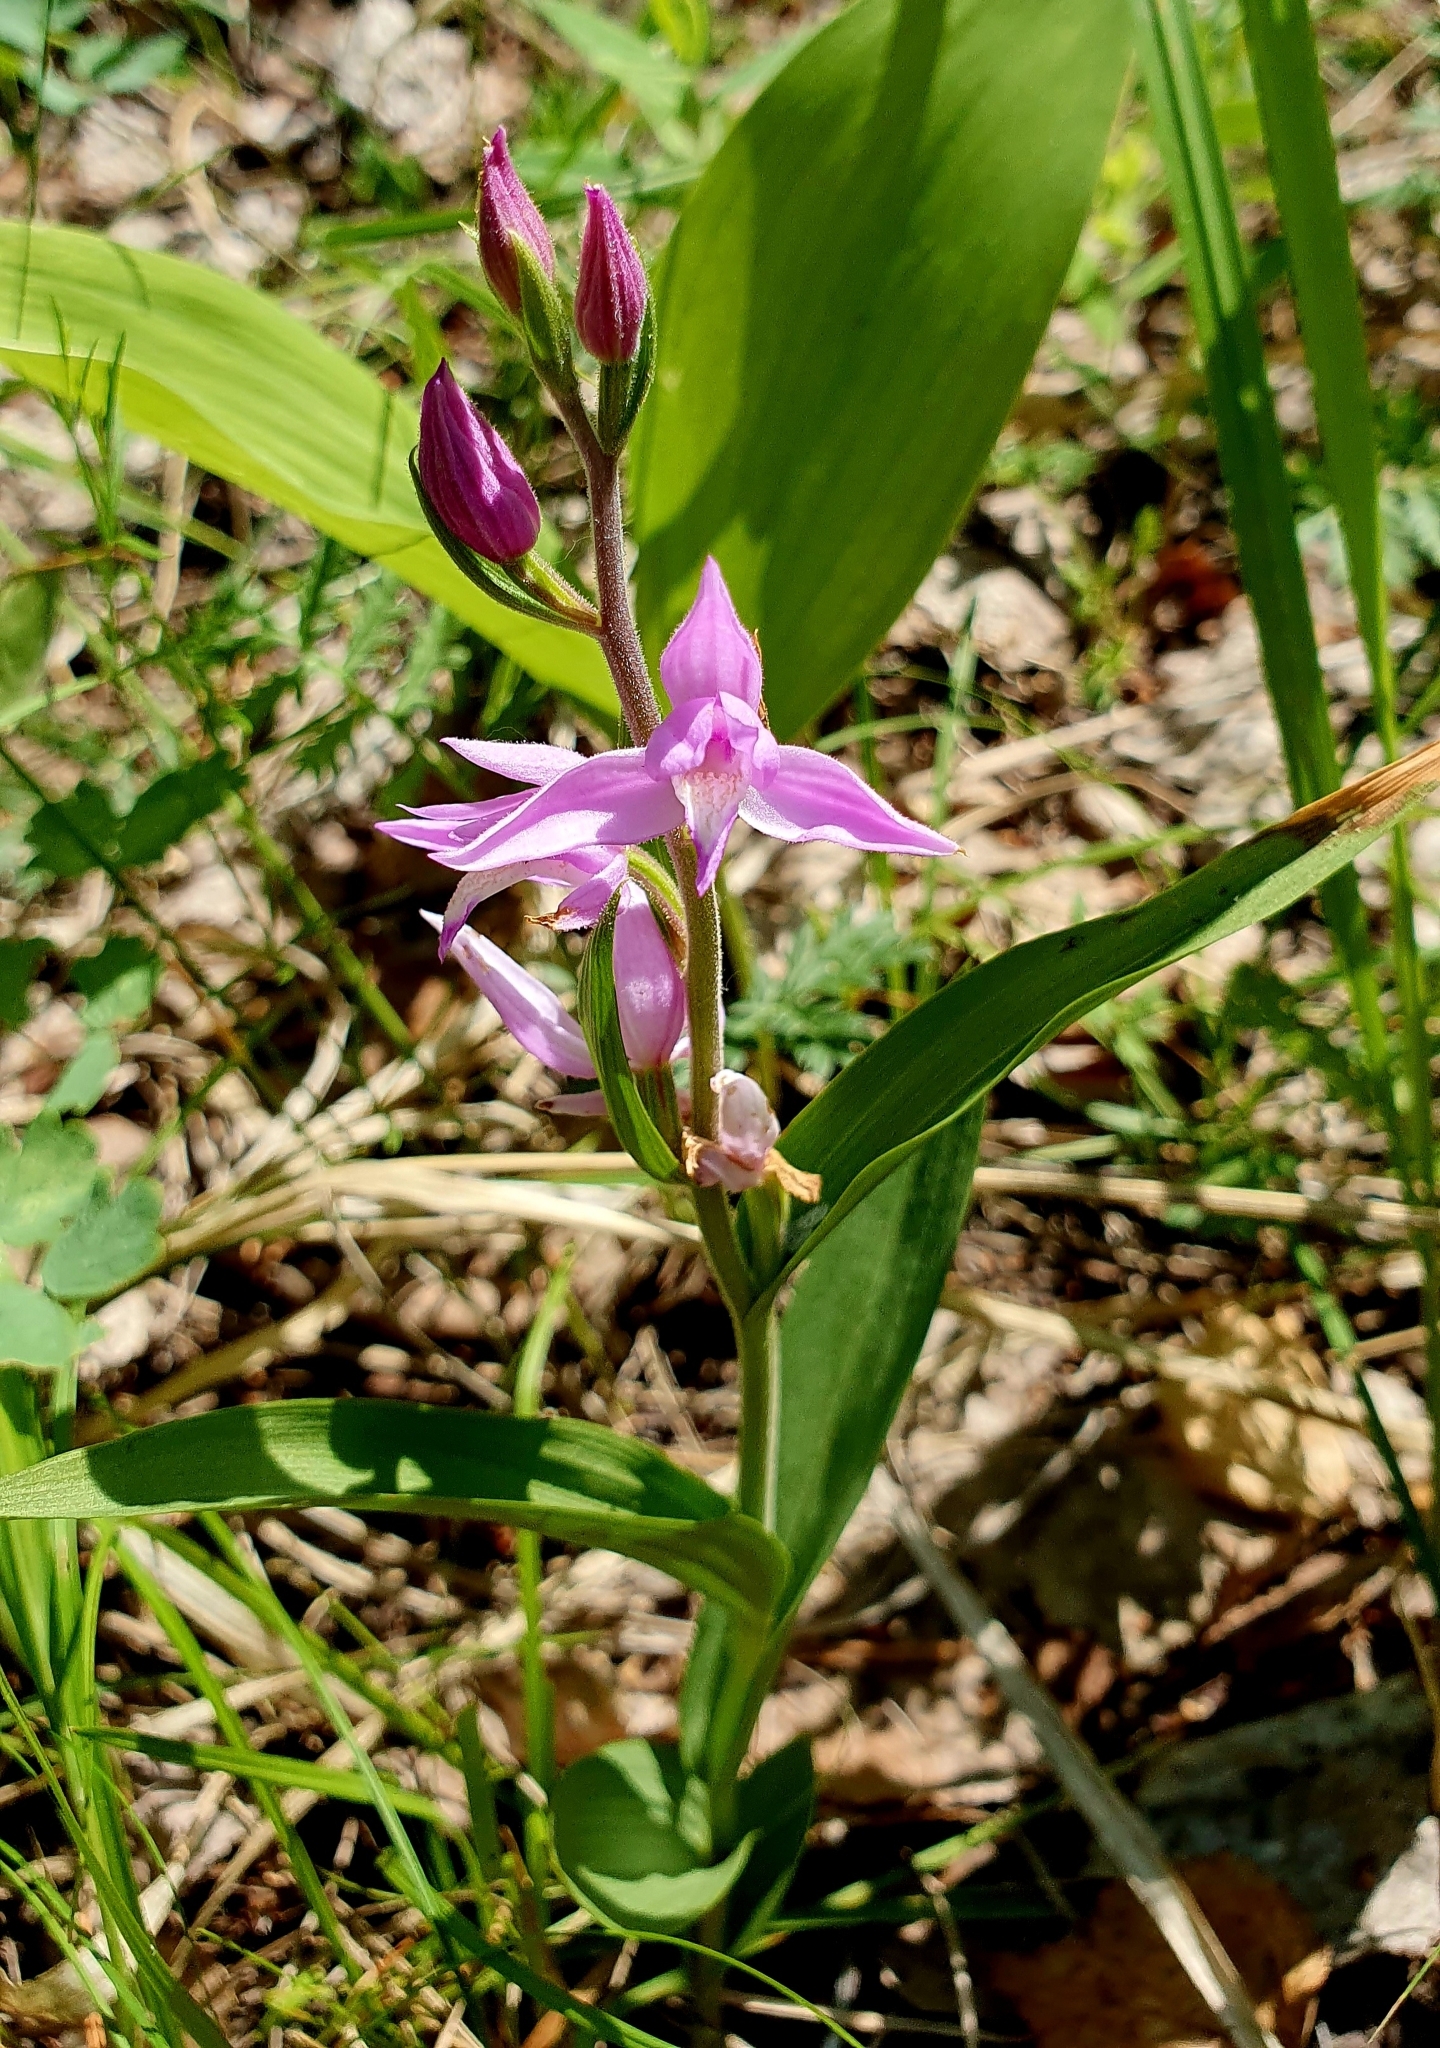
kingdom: Plantae
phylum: Tracheophyta
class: Liliopsida
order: Asparagales
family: Orchidaceae
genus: Cephalanthera
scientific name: Cephalanthera rubra
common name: Red helleborine
